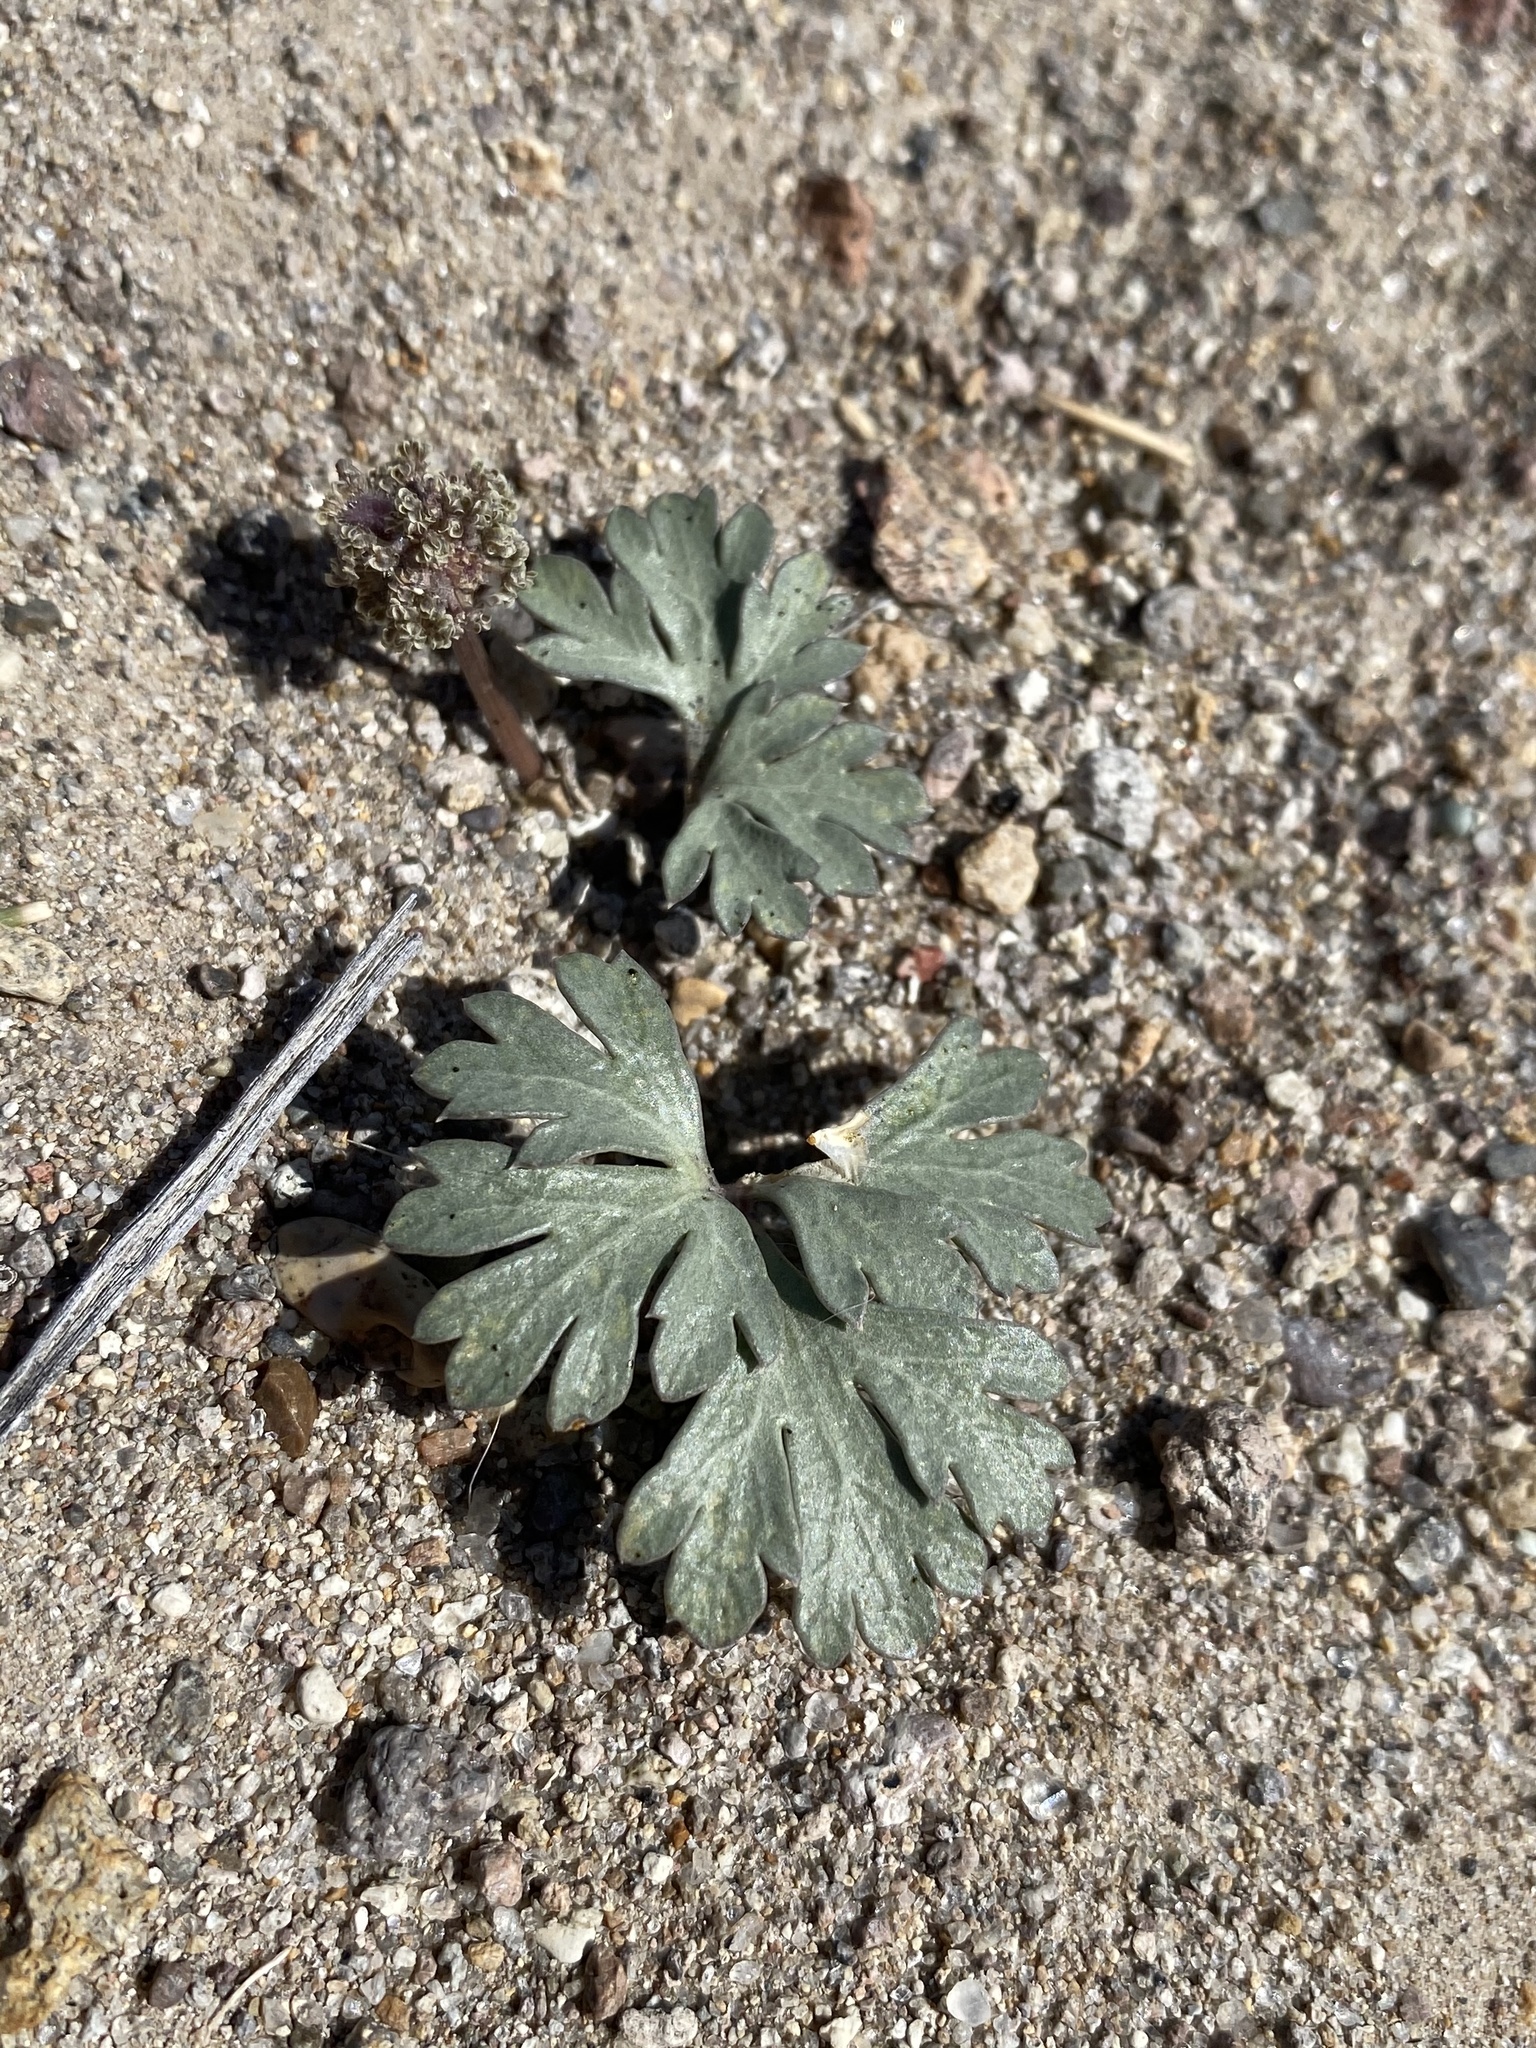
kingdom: Plantae
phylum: Tracheophyta
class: Magnoliopsida
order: Apiales
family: Apiaceae
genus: Cymopterus
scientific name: Cymopterus ripleyi
